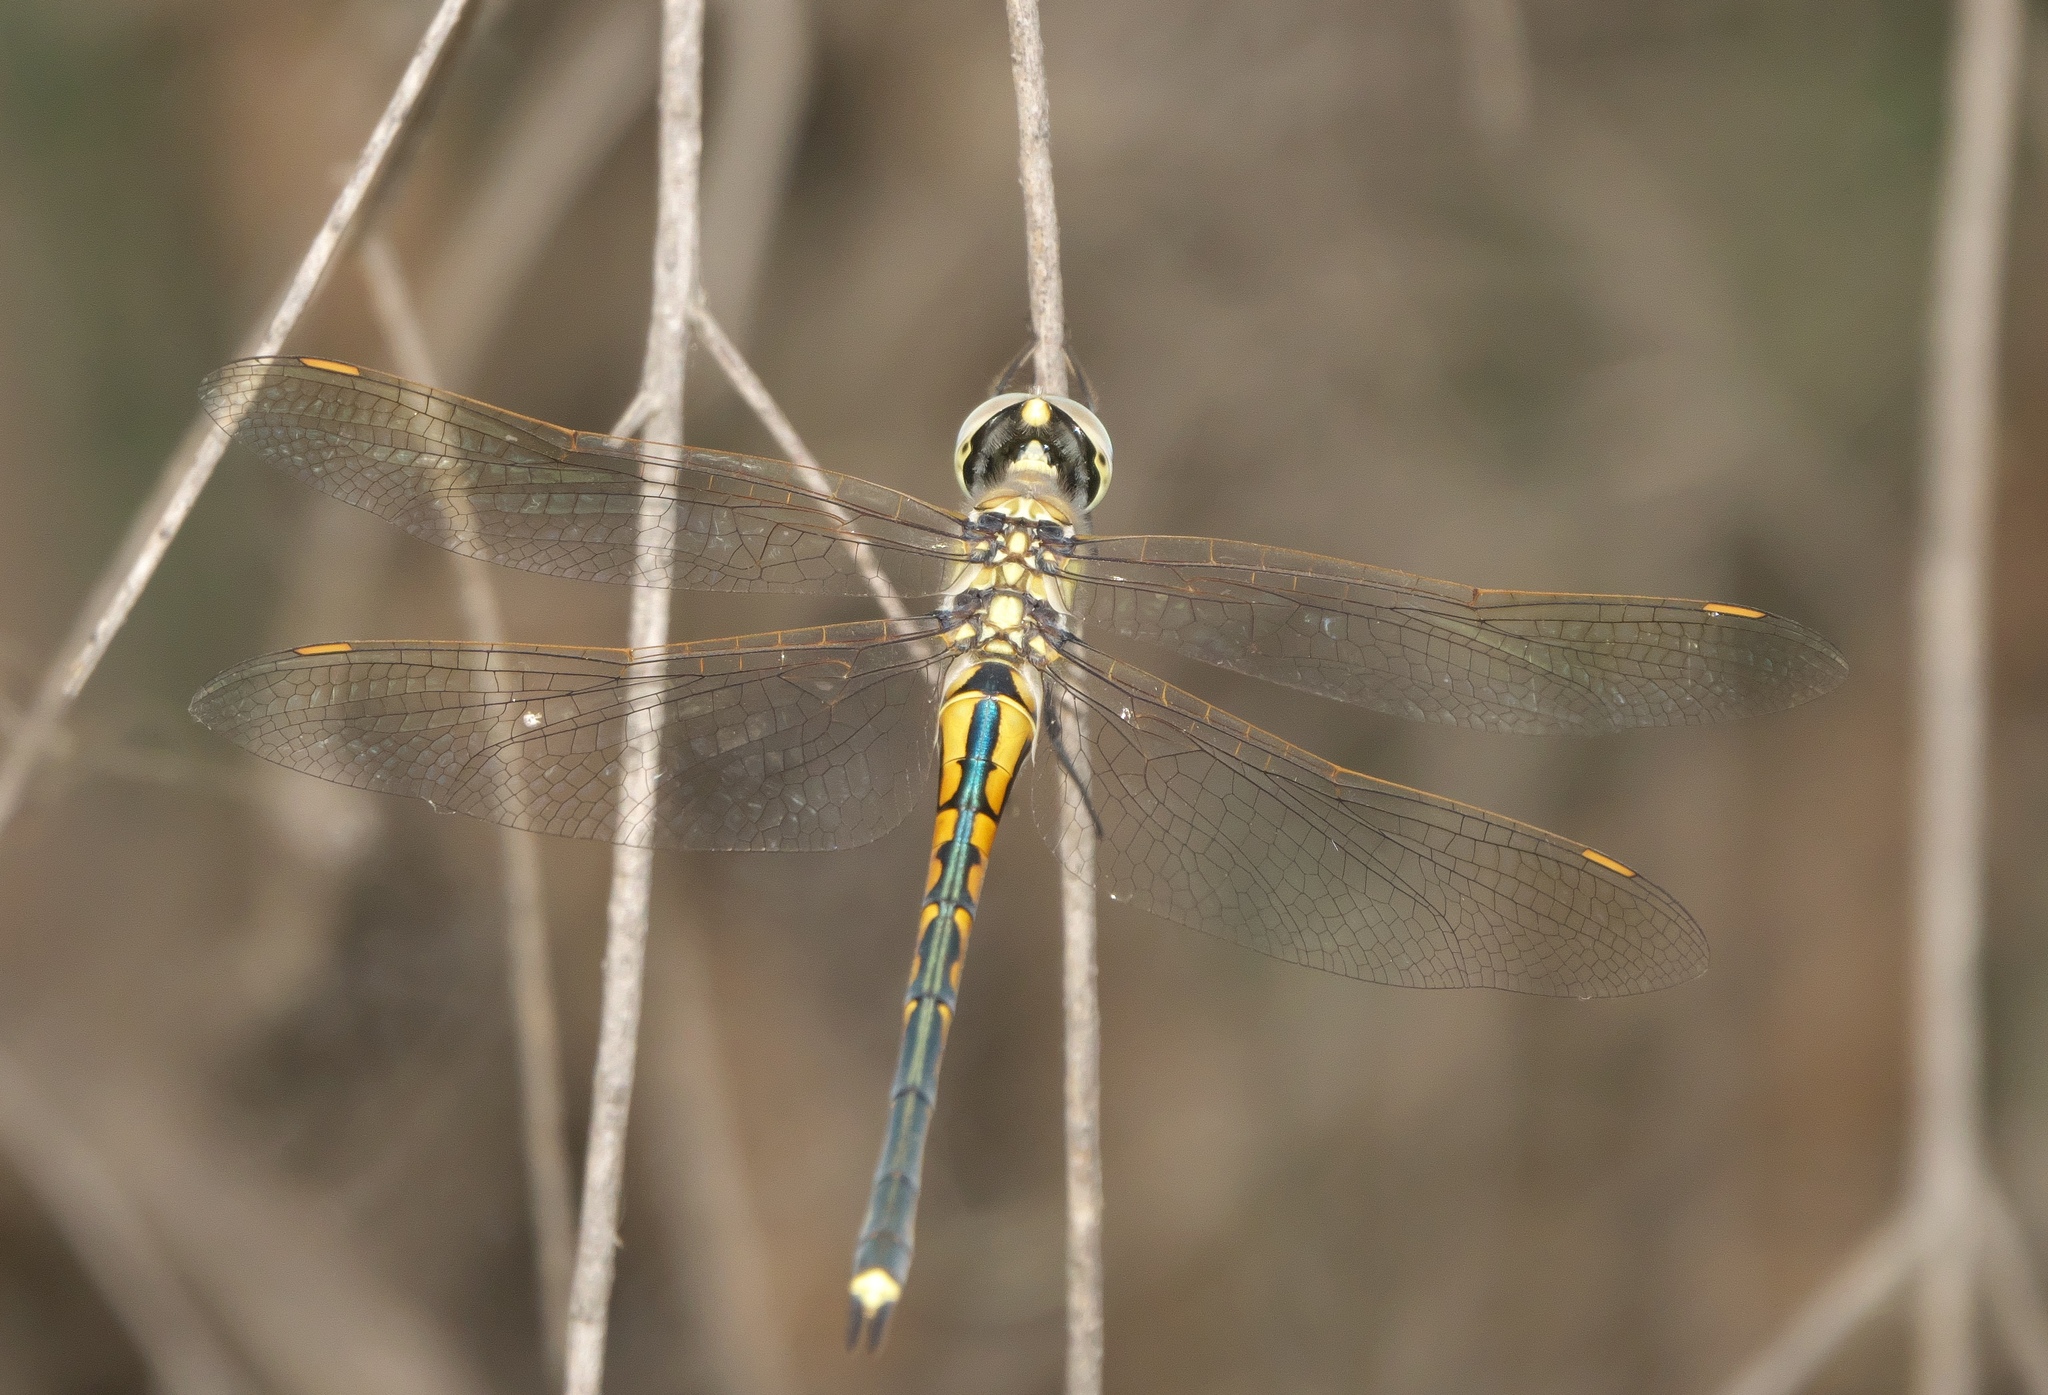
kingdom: Animalia
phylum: Arthropoda
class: Insecta
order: Odonata
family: Corduliidae
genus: Hemicordulia
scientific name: Hemicordulia tau
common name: Tau emerald
